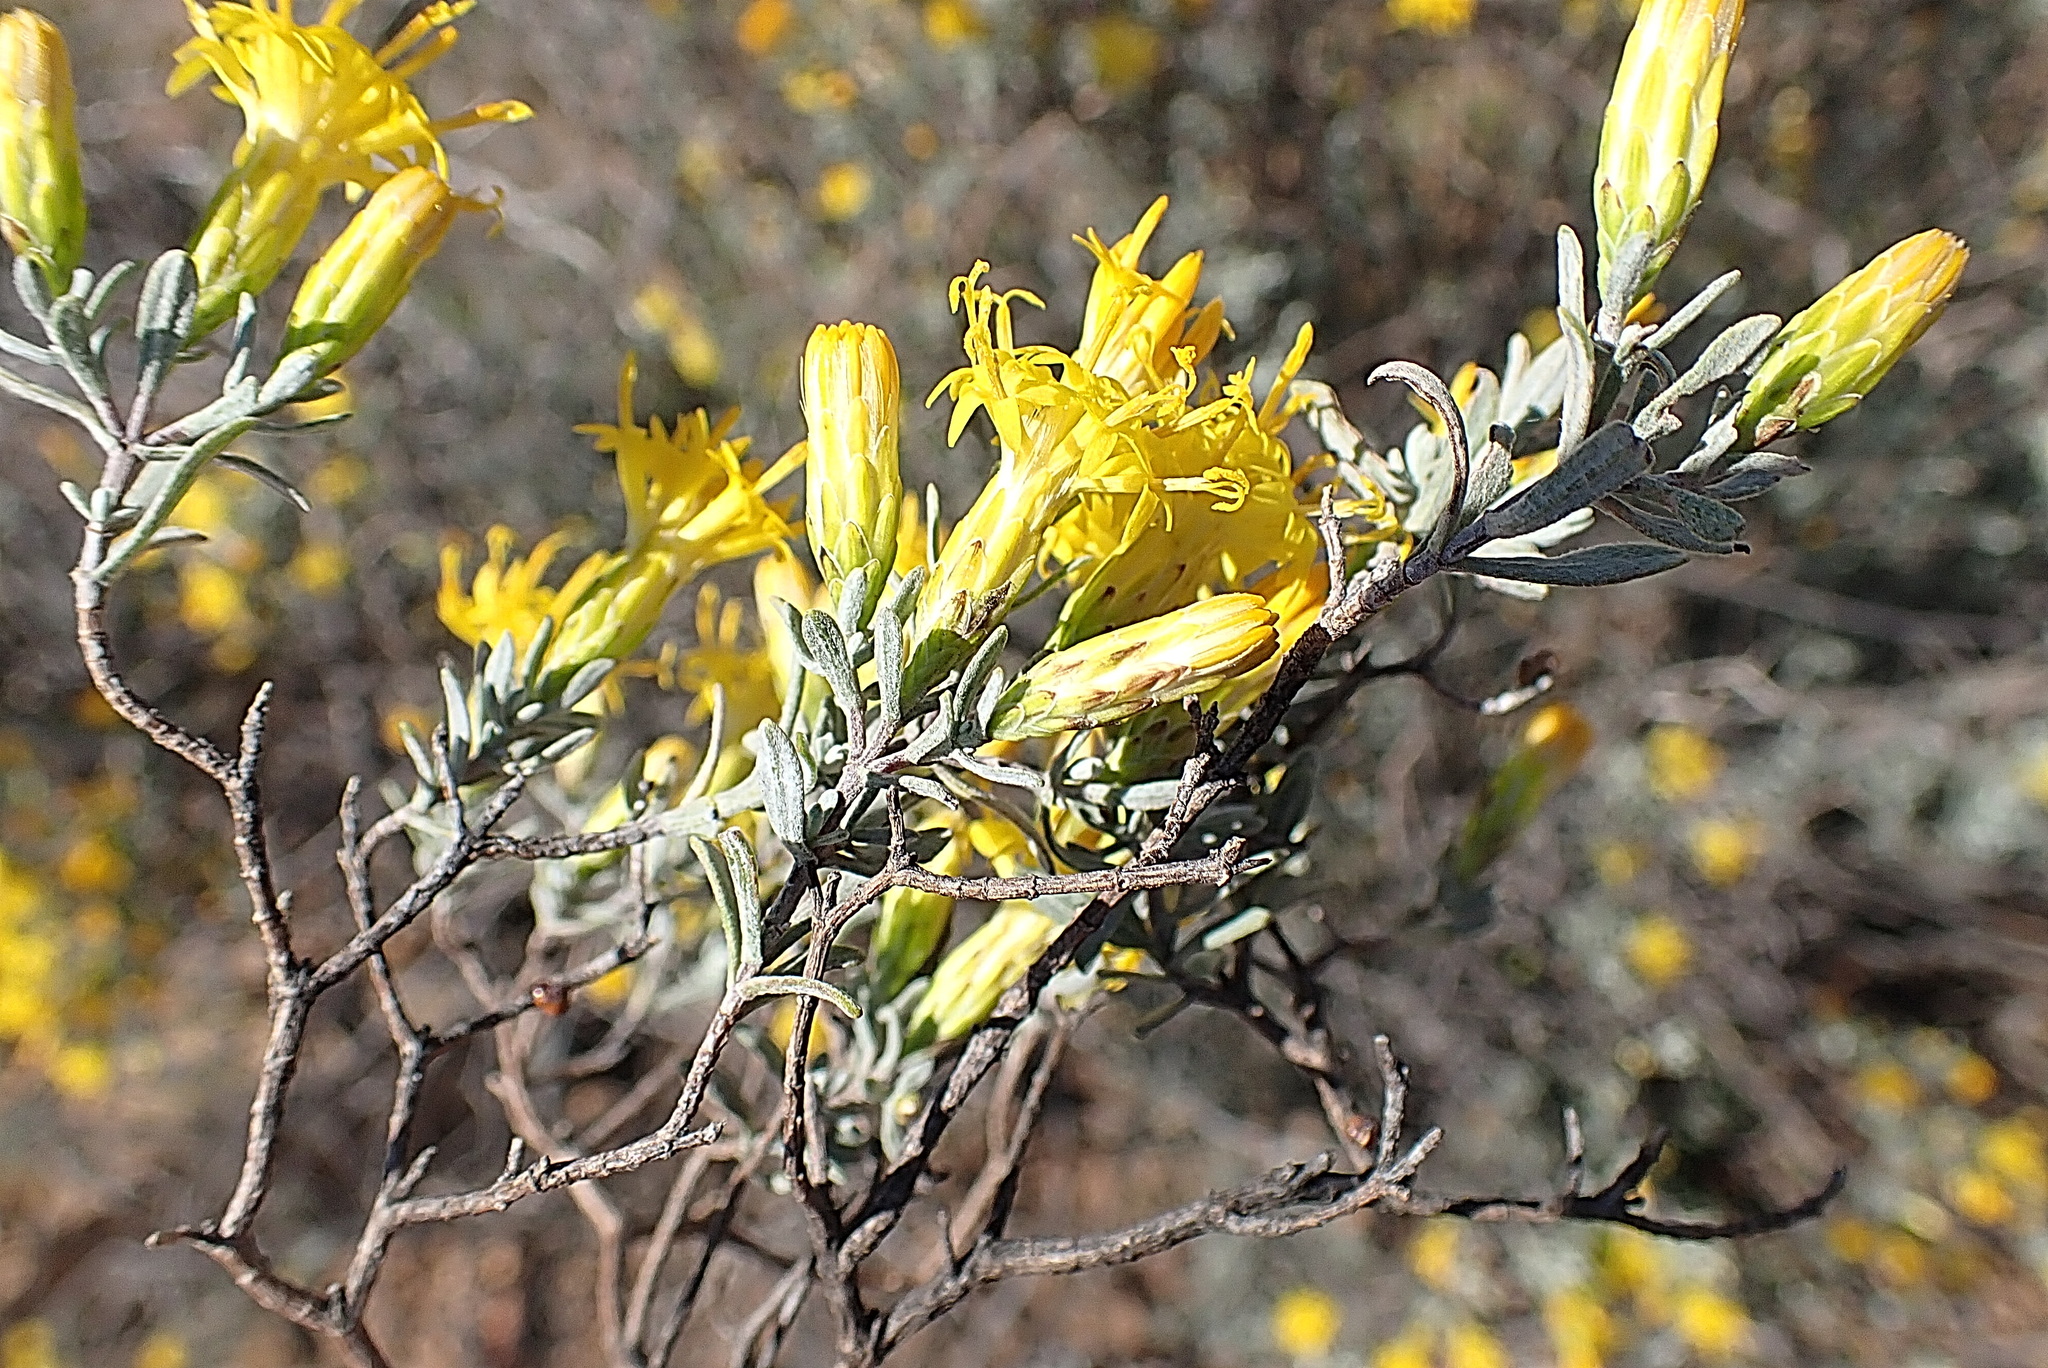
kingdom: Plantae
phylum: Tracheophyta
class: Magnoliopsida
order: Asterales
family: Asteraceae
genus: Pteronia
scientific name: Pteronia incana
